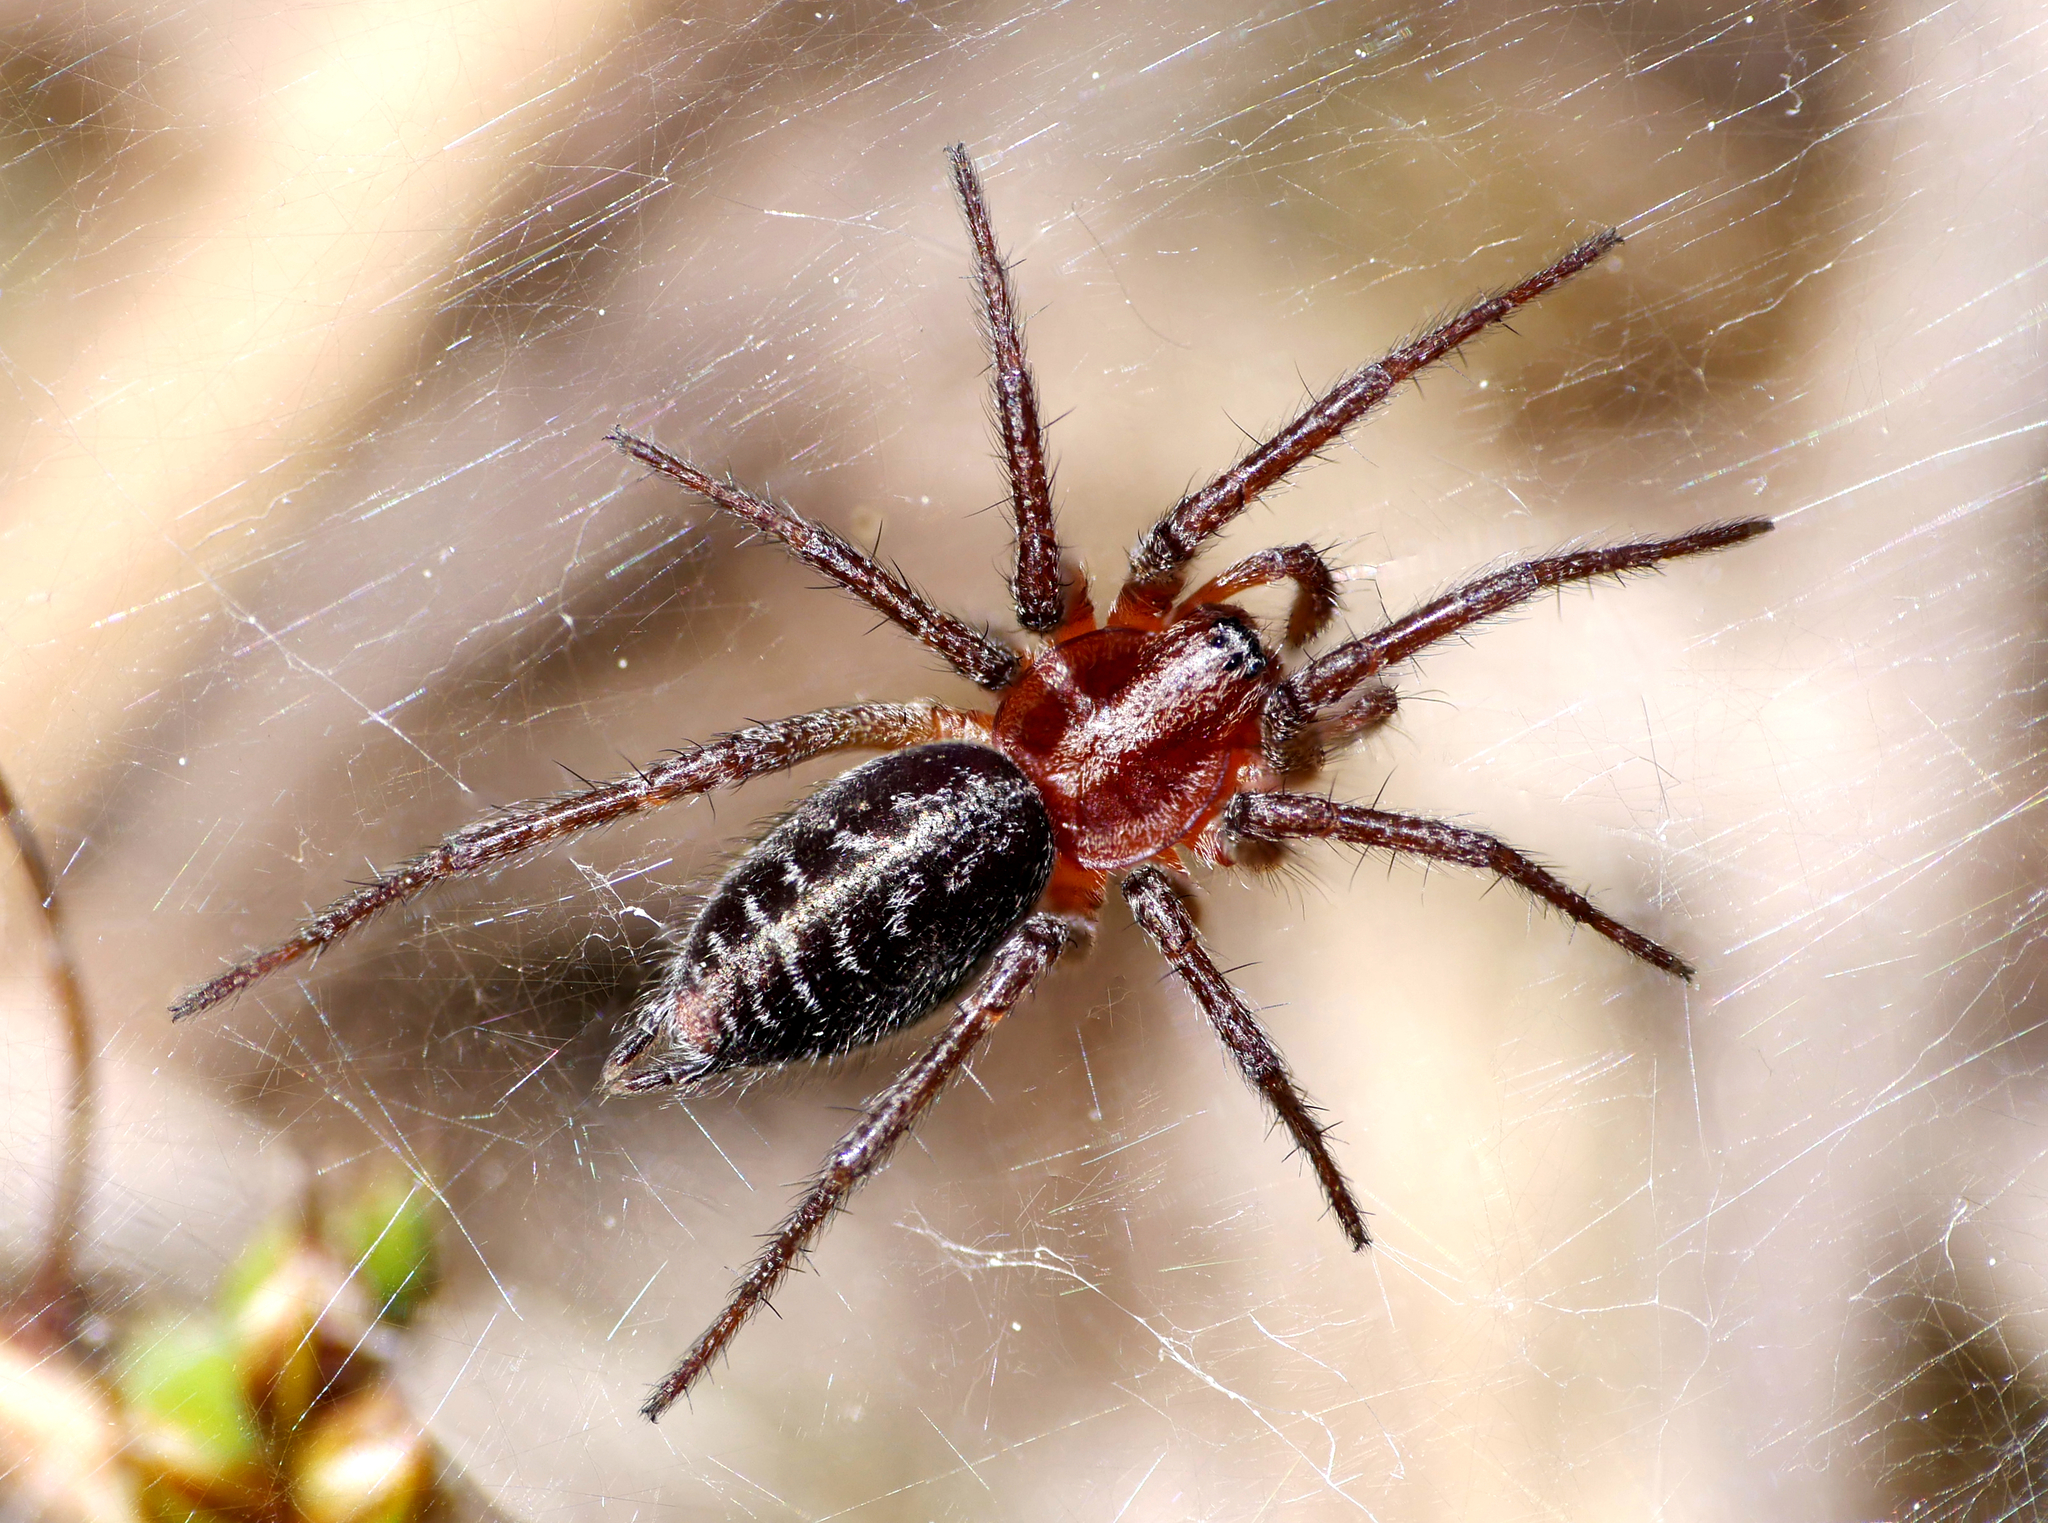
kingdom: Animalia
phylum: Arthropoda
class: Arachnida
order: Araneae
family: Agelenidae
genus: Agelena
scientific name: Agelena labyrinthica
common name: Labyrinth spider
